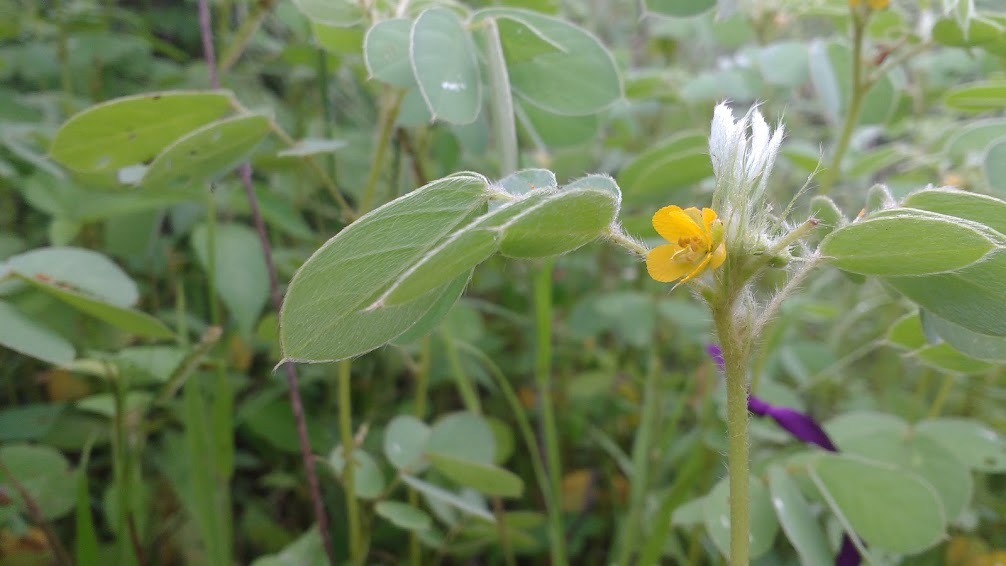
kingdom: Plantae
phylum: Tracheophyta
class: Magnoliopsida
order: Fabales
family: Fabaceae
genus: Senna
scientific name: Senna uniflora
